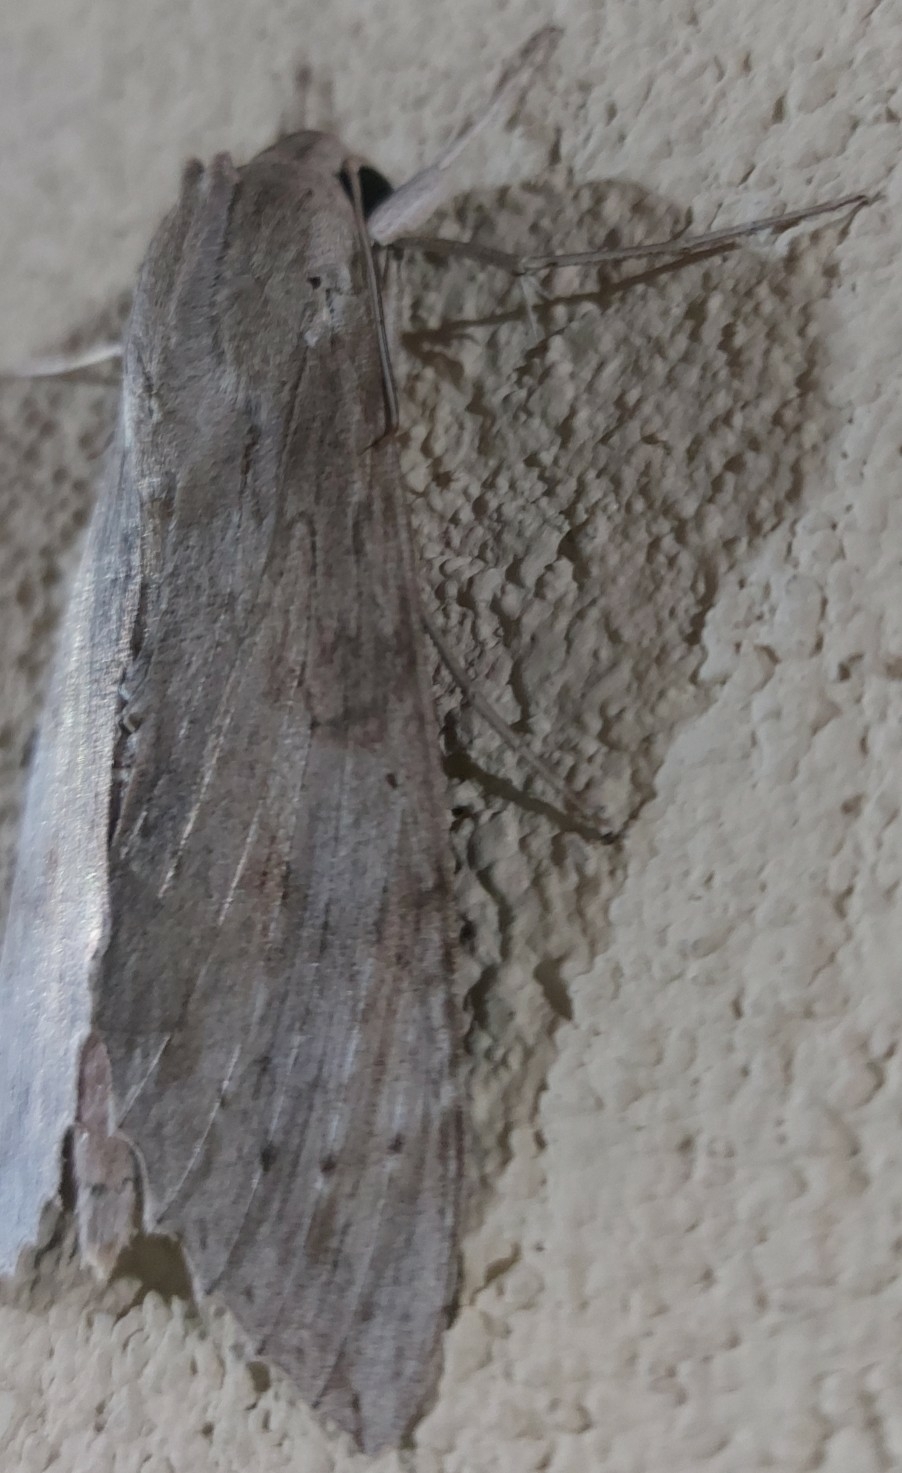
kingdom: Animalia
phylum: Arthropoda
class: Insecta
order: Lepidoptera
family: Sphingidae
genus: Erinnyis
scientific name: Erinnyis ello
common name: Ello sphinx
